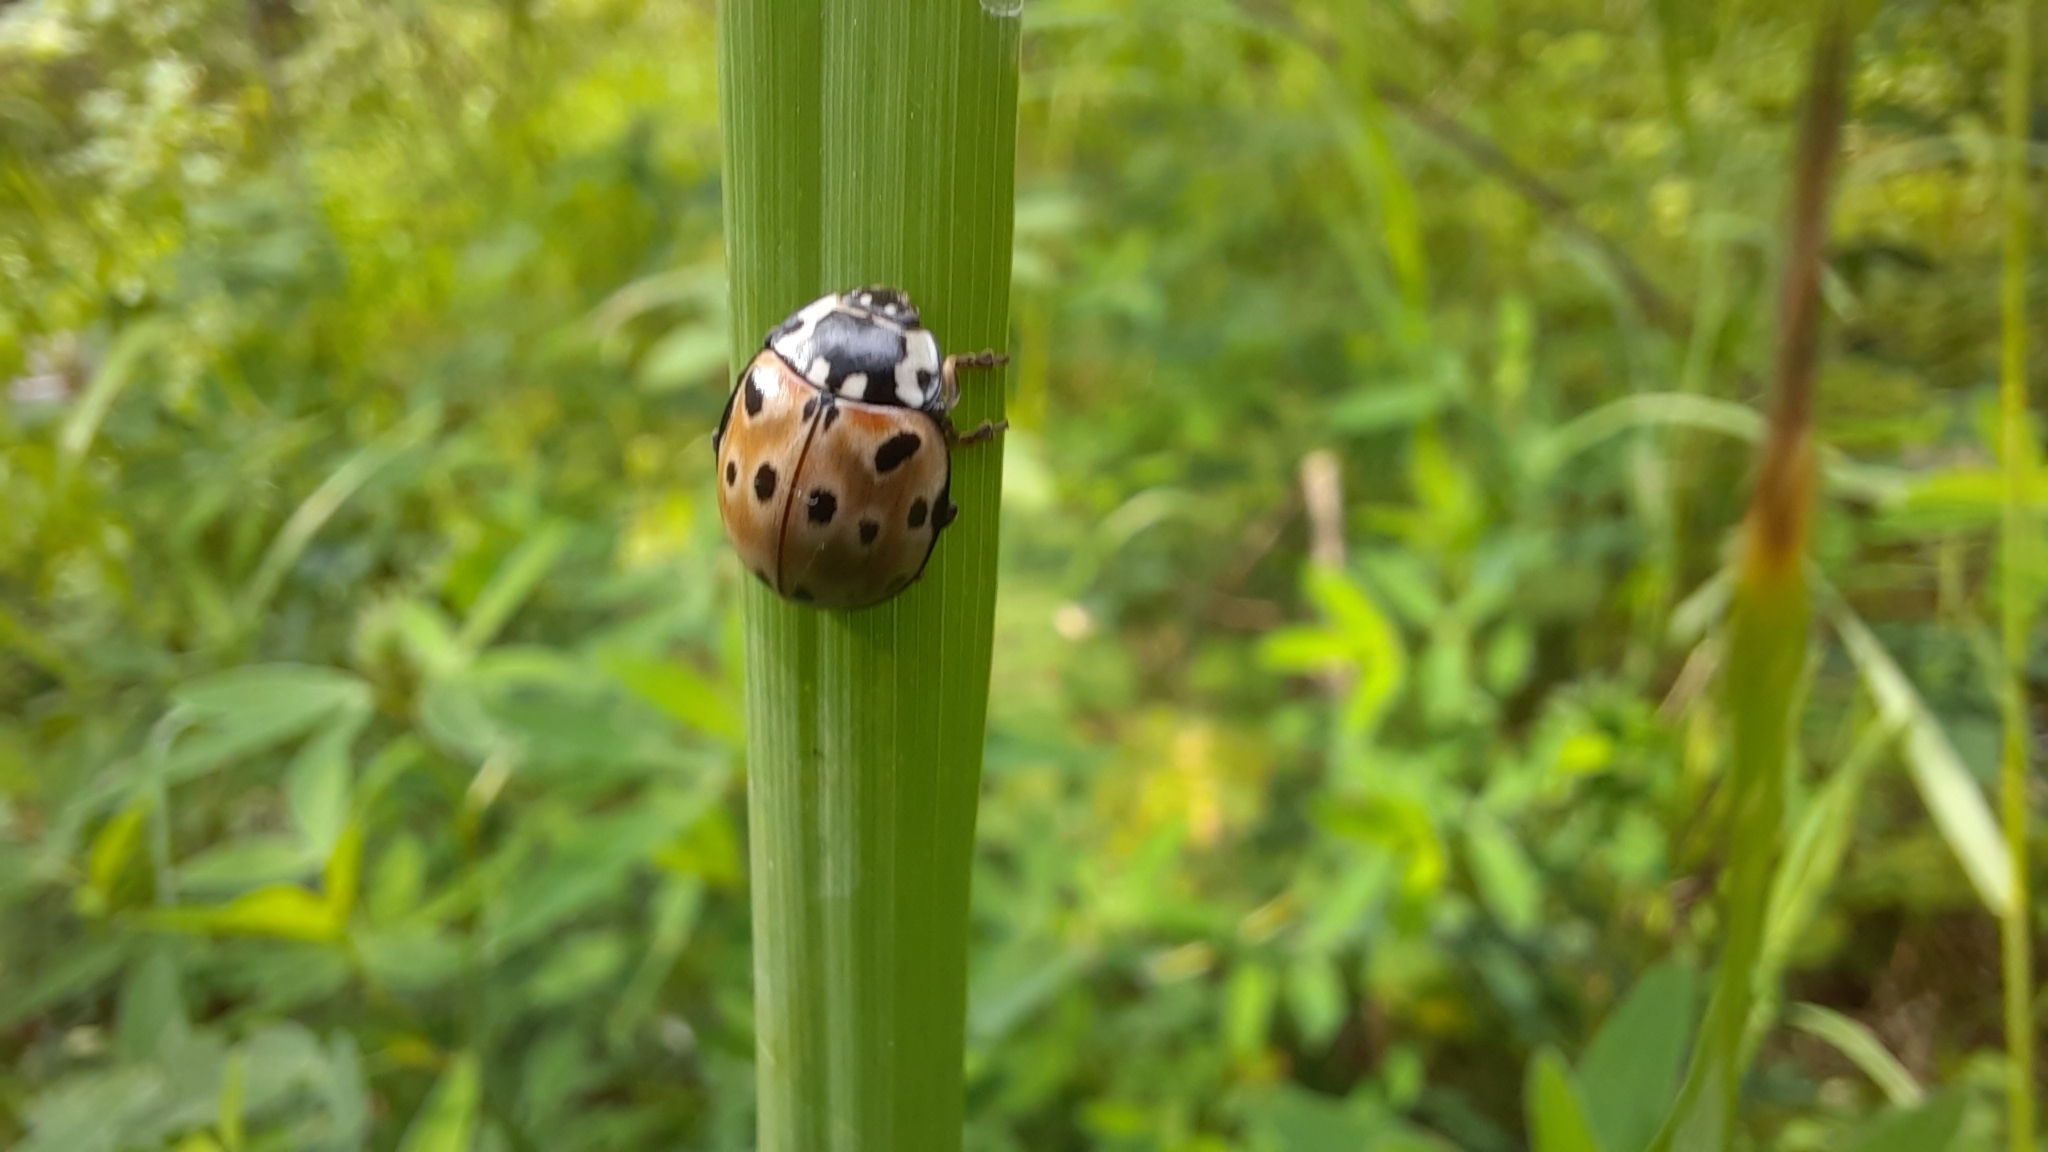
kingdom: Animalia
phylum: Arthropoda
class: Insecta
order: Coleoptera
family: Coccinellidae
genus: Anatis
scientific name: Anatis ocellata
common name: Eyed ladybird
